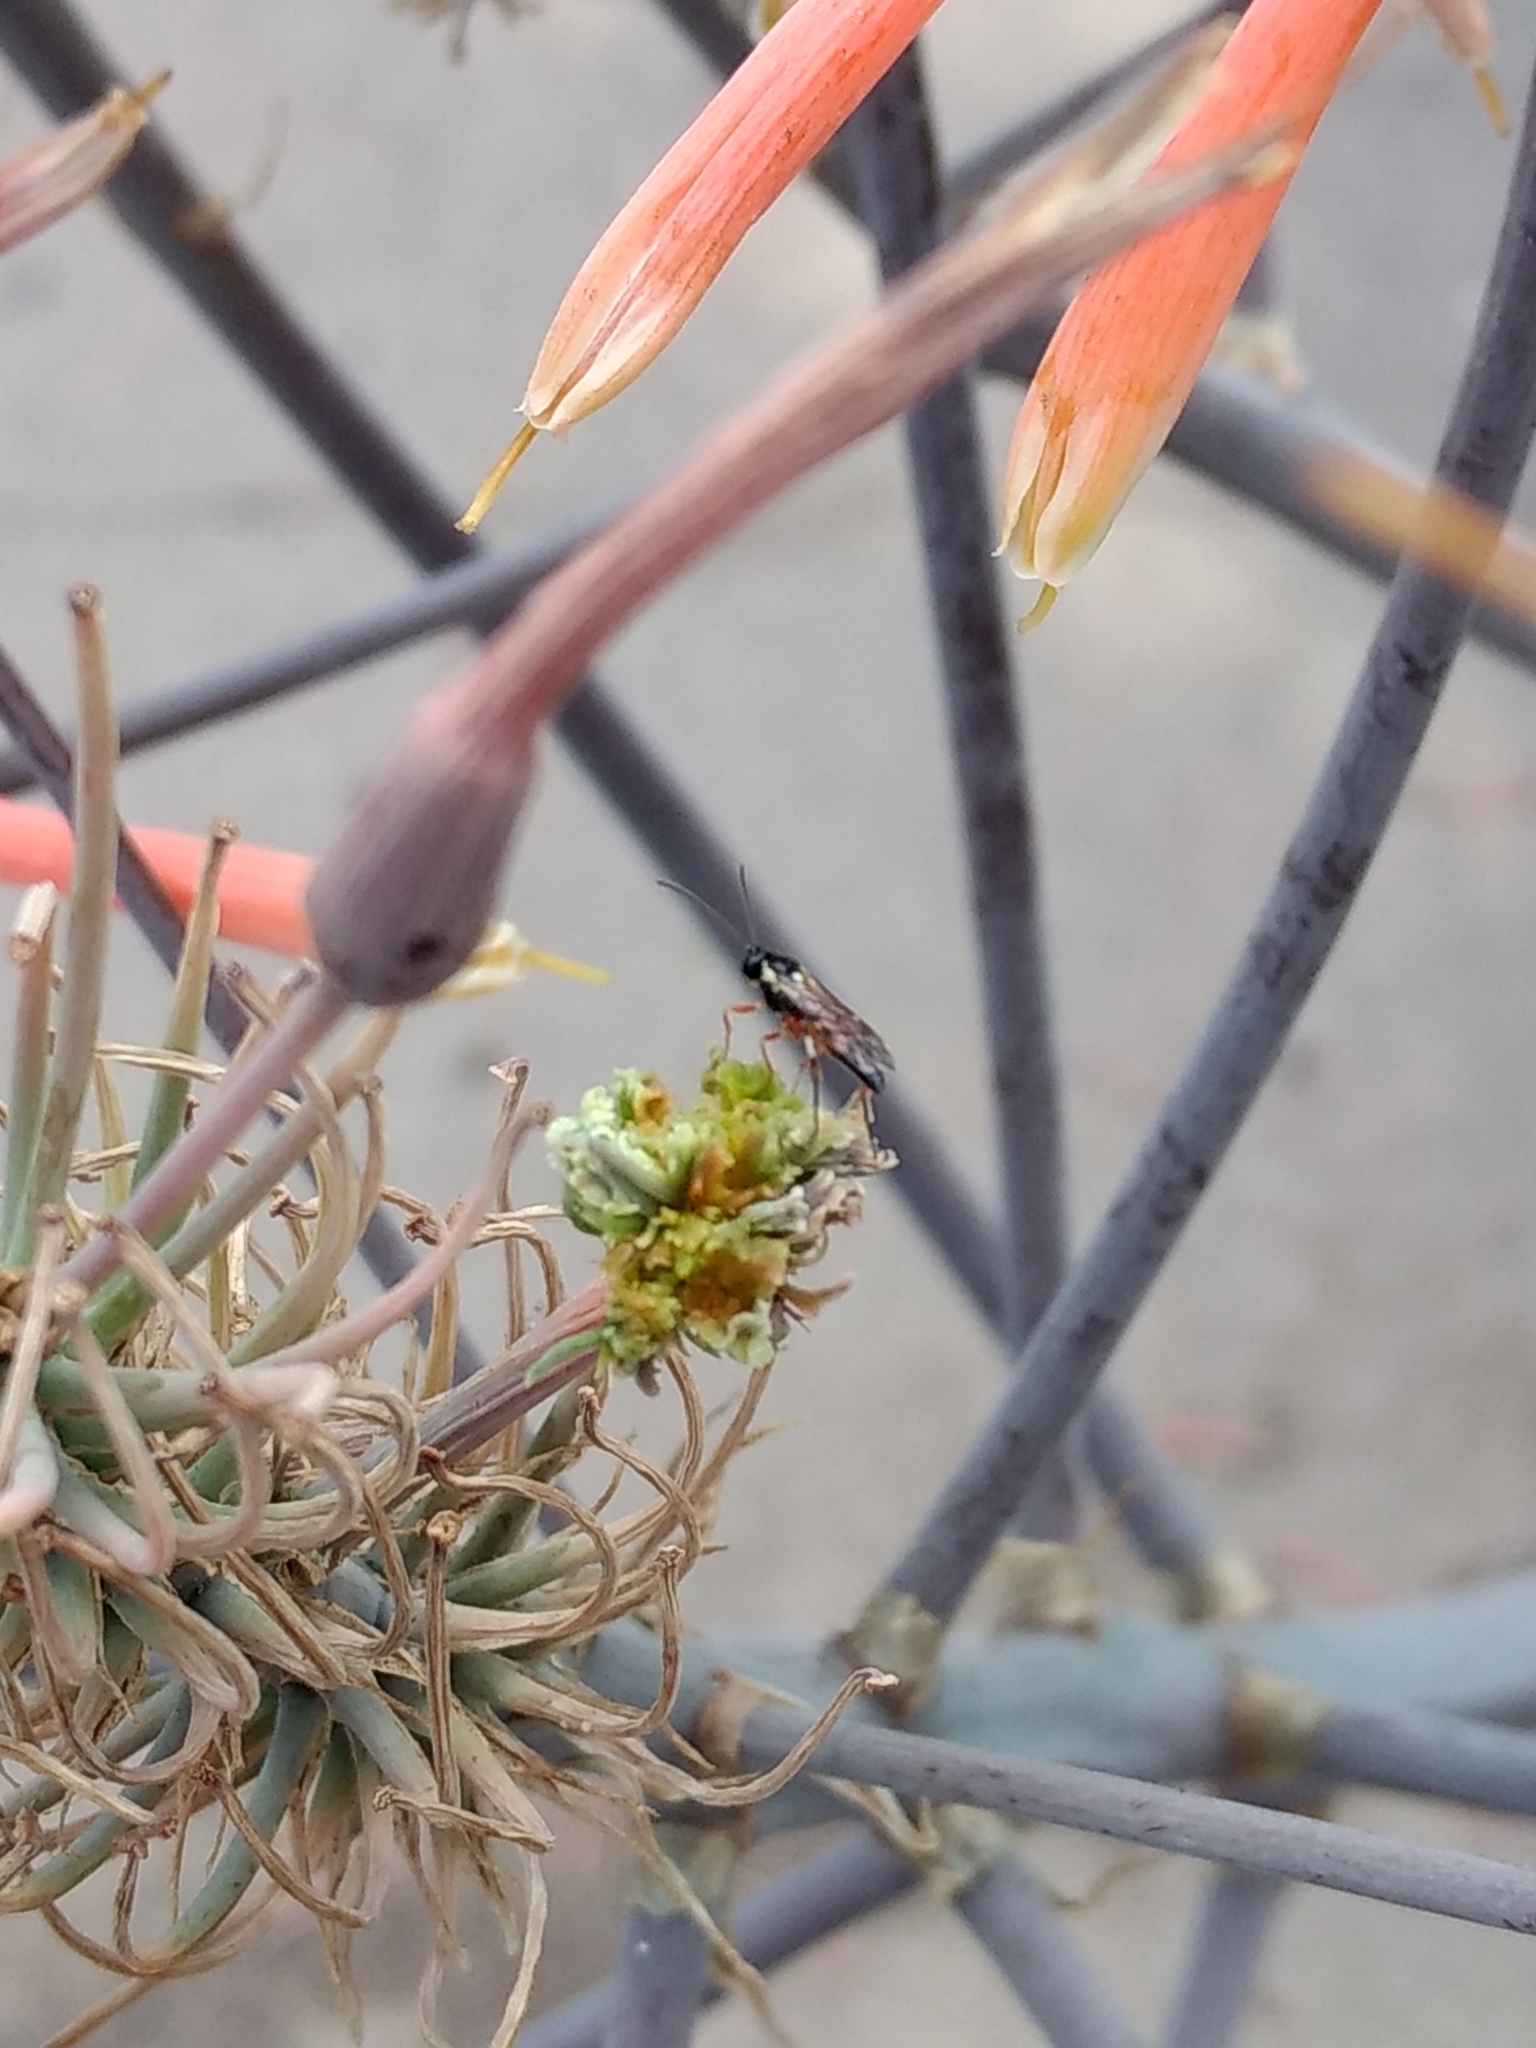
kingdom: Animalia
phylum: Arthropoda
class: Insecta
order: Hymenoptera
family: Ichneumonidae
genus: Diplazon
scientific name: Diplazon laetatorius
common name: Parasitoid wasp
